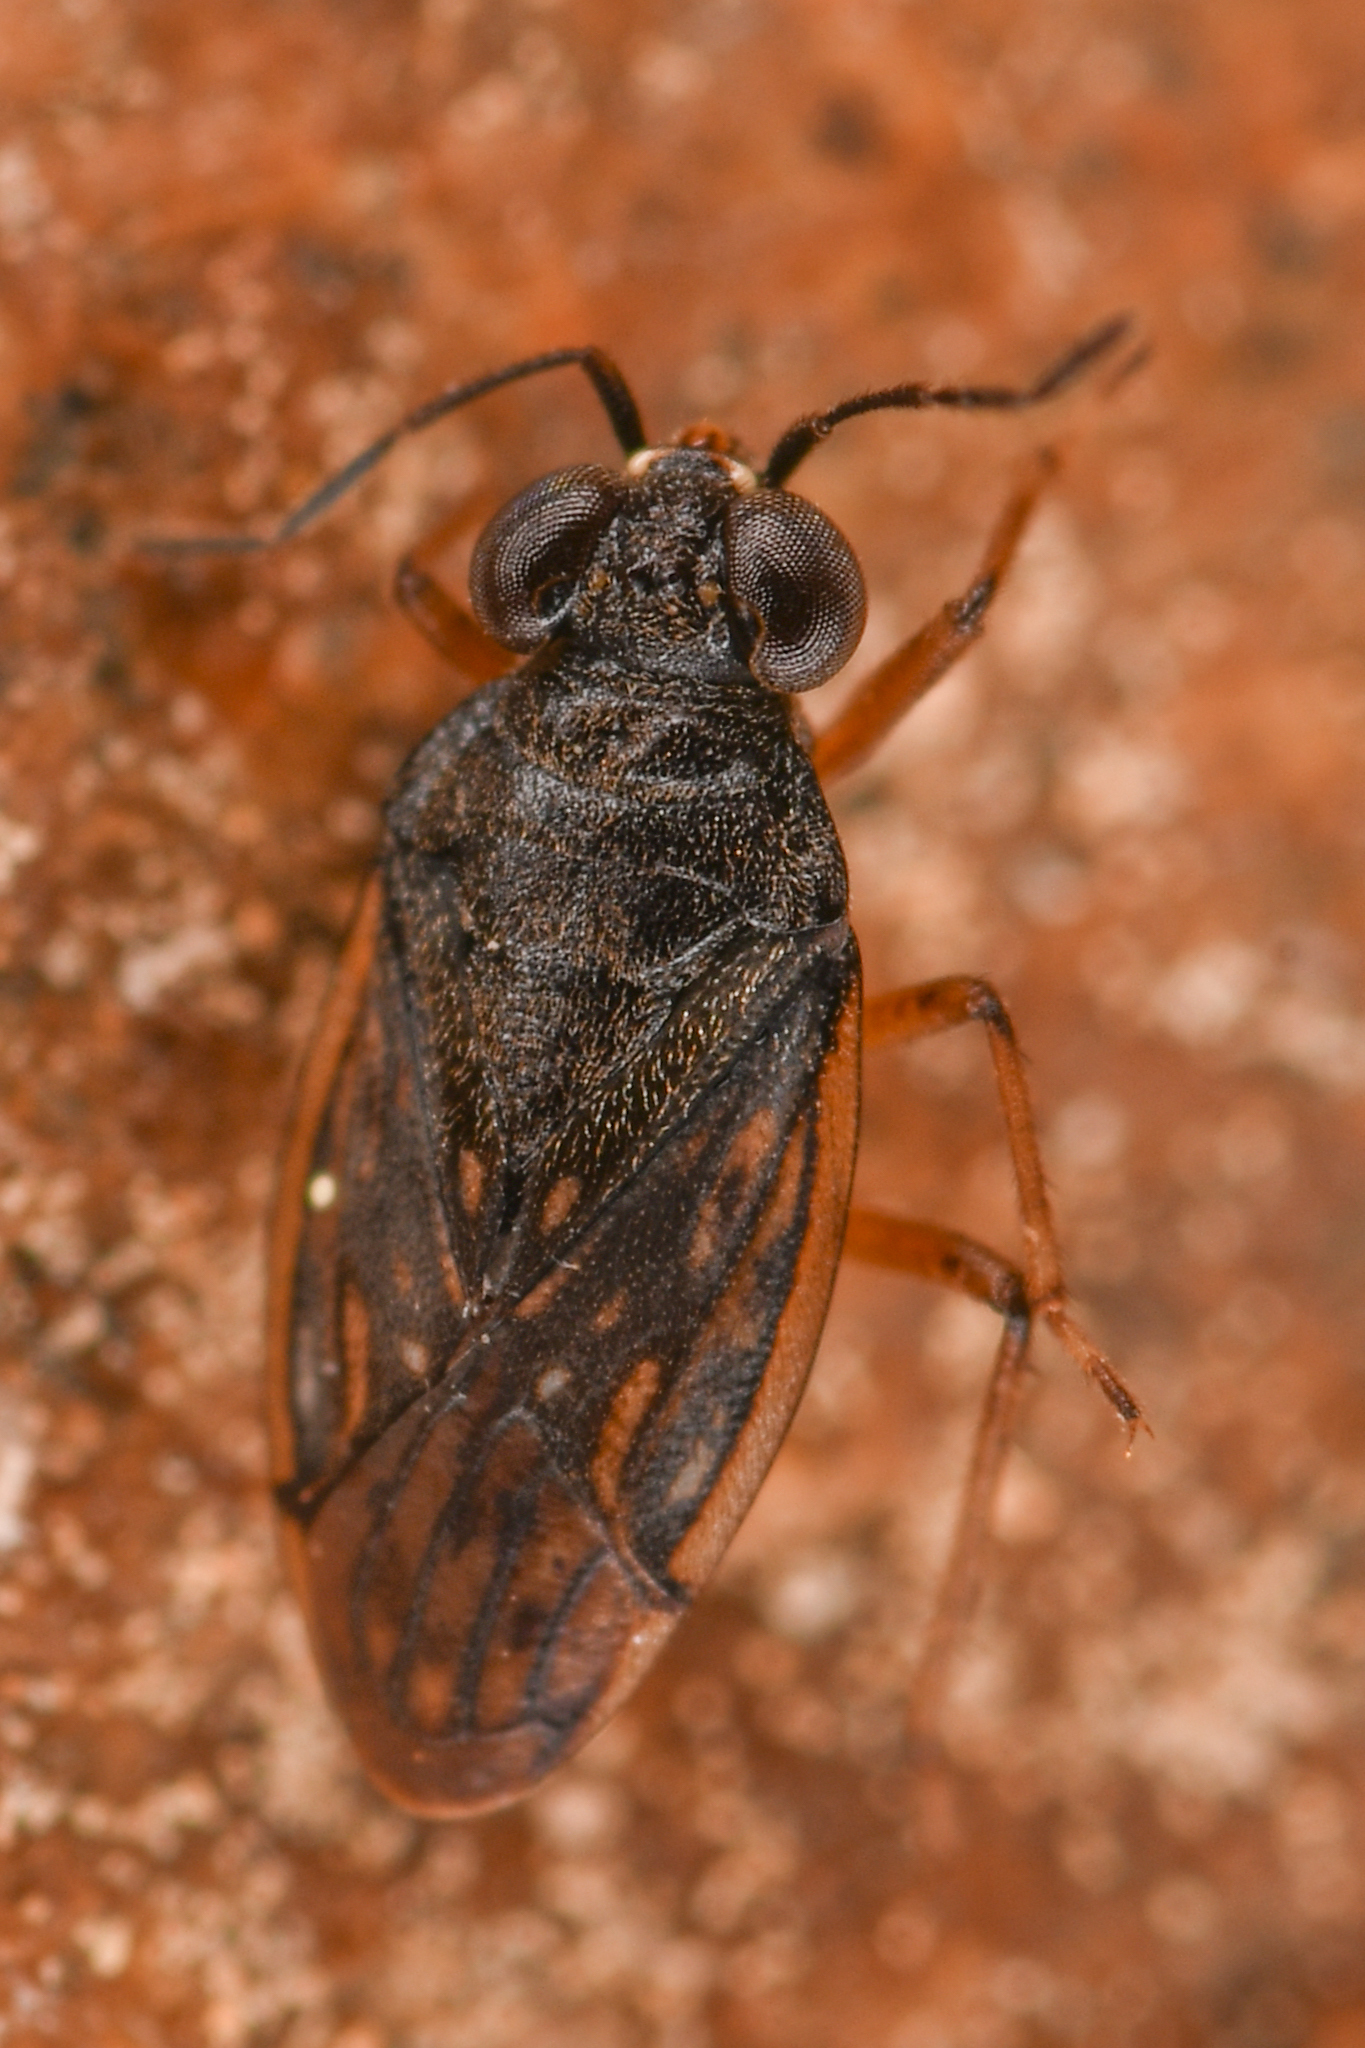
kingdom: Animalia
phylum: Arthropoda
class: Insecta
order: Hemiptera
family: Saldidae
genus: Saldula
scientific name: Saldula dispersa
